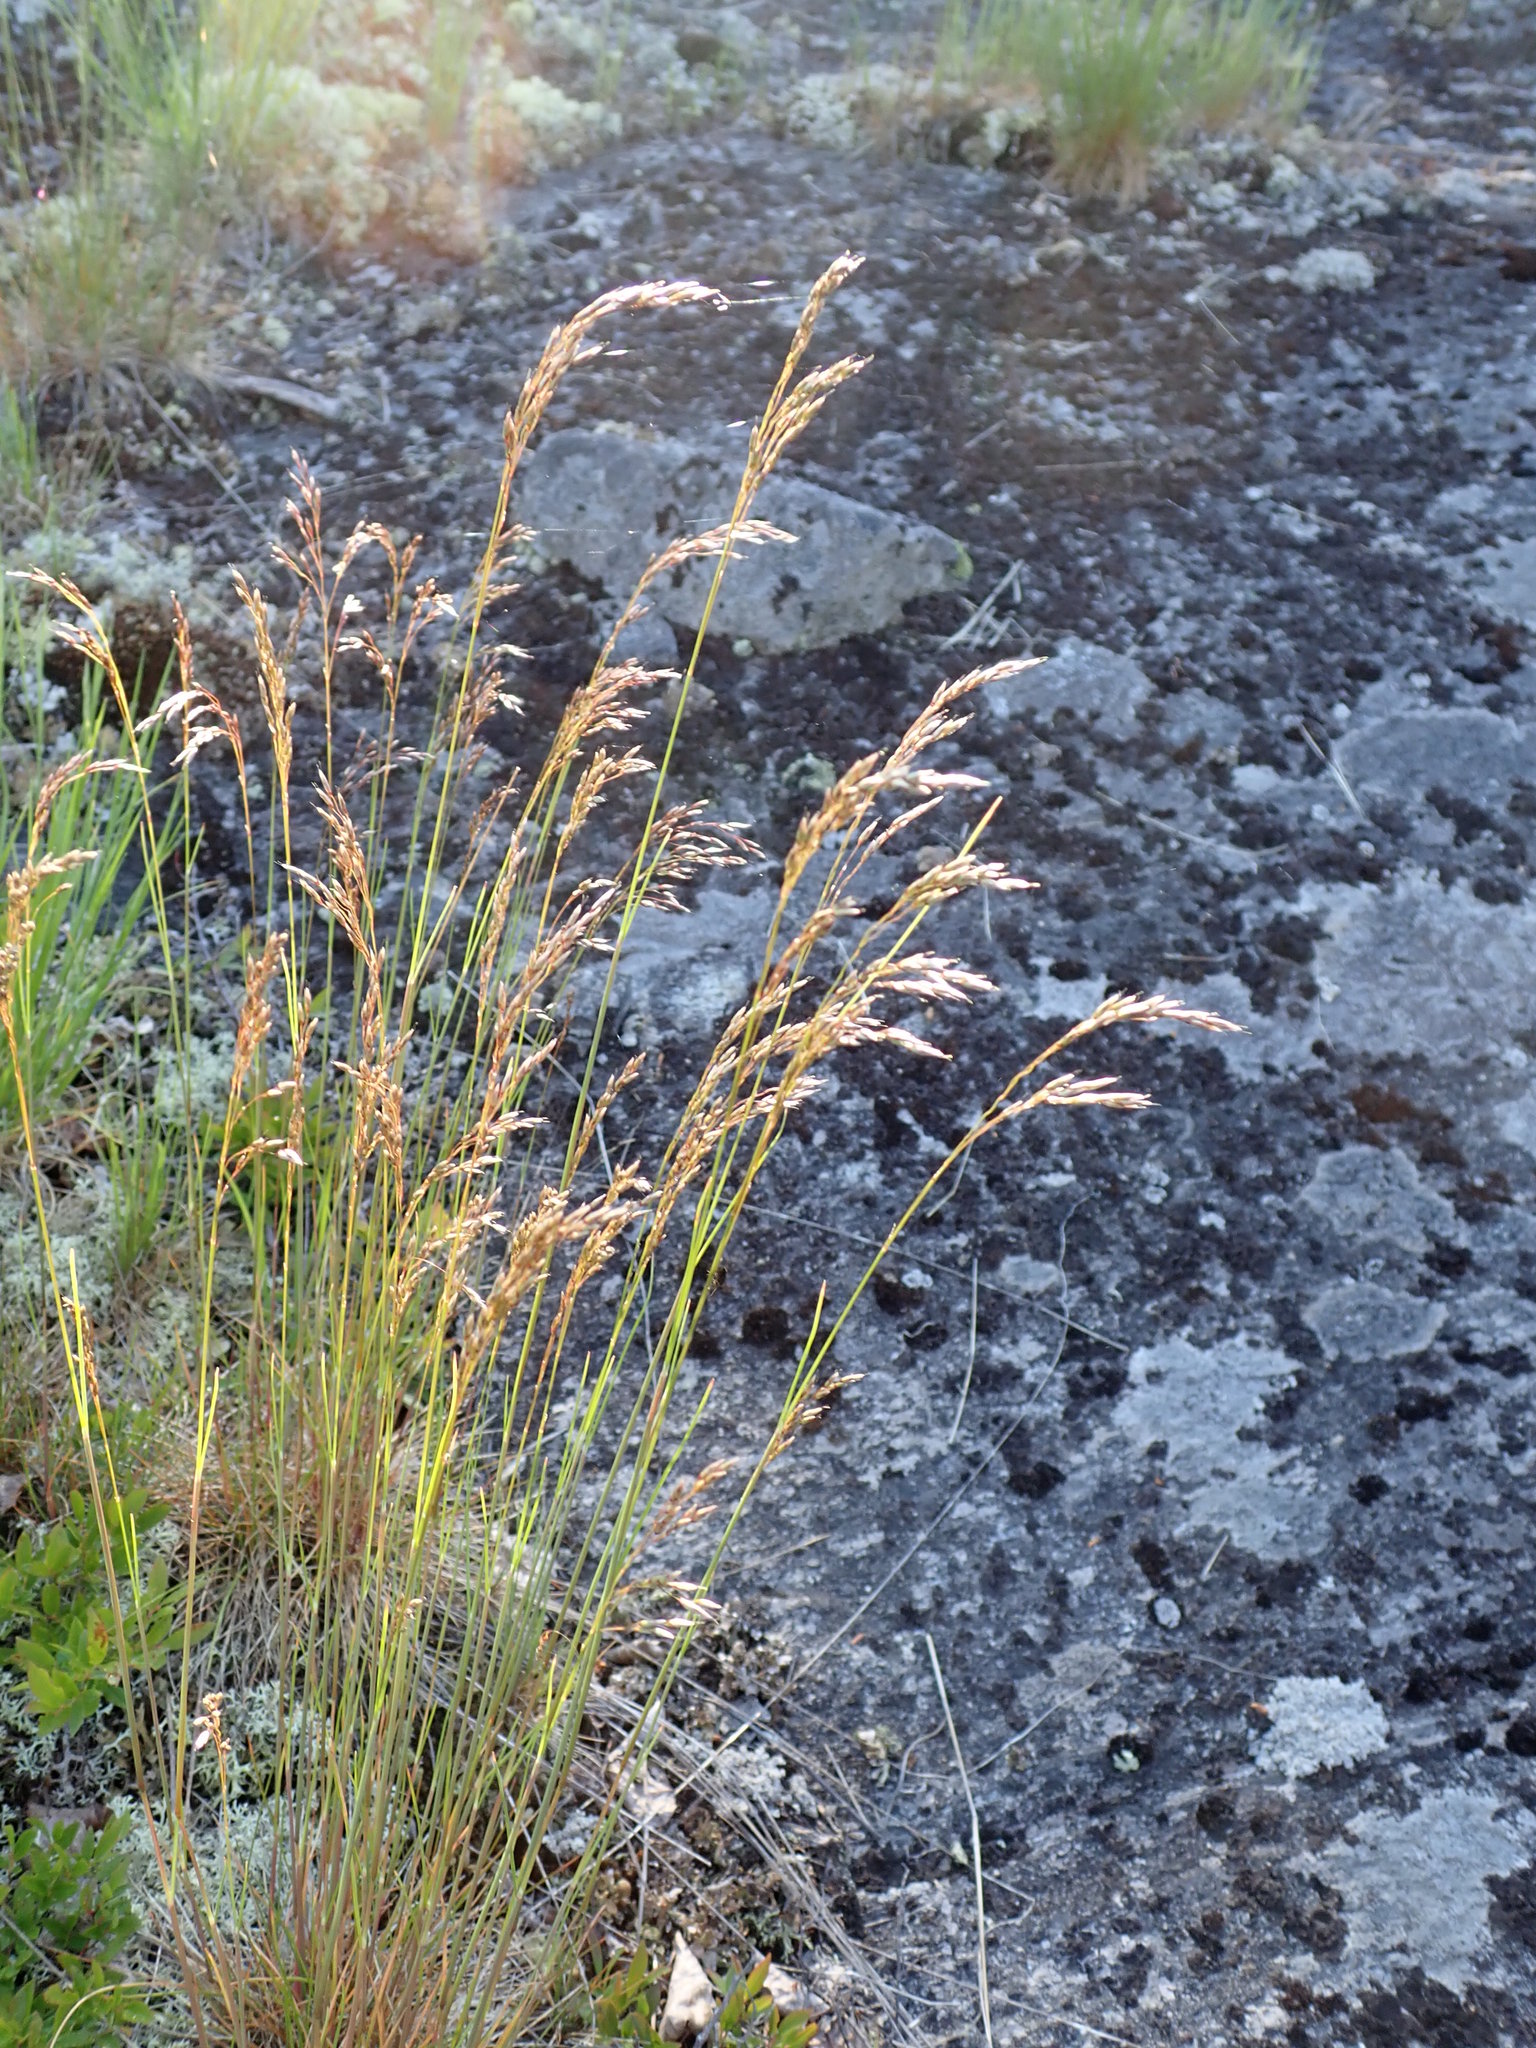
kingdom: Plantae
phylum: Tracheophyta
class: Liliopsida
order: Poales
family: Poaceae
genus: Festuca
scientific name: Festuca rubra
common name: Red fescue
